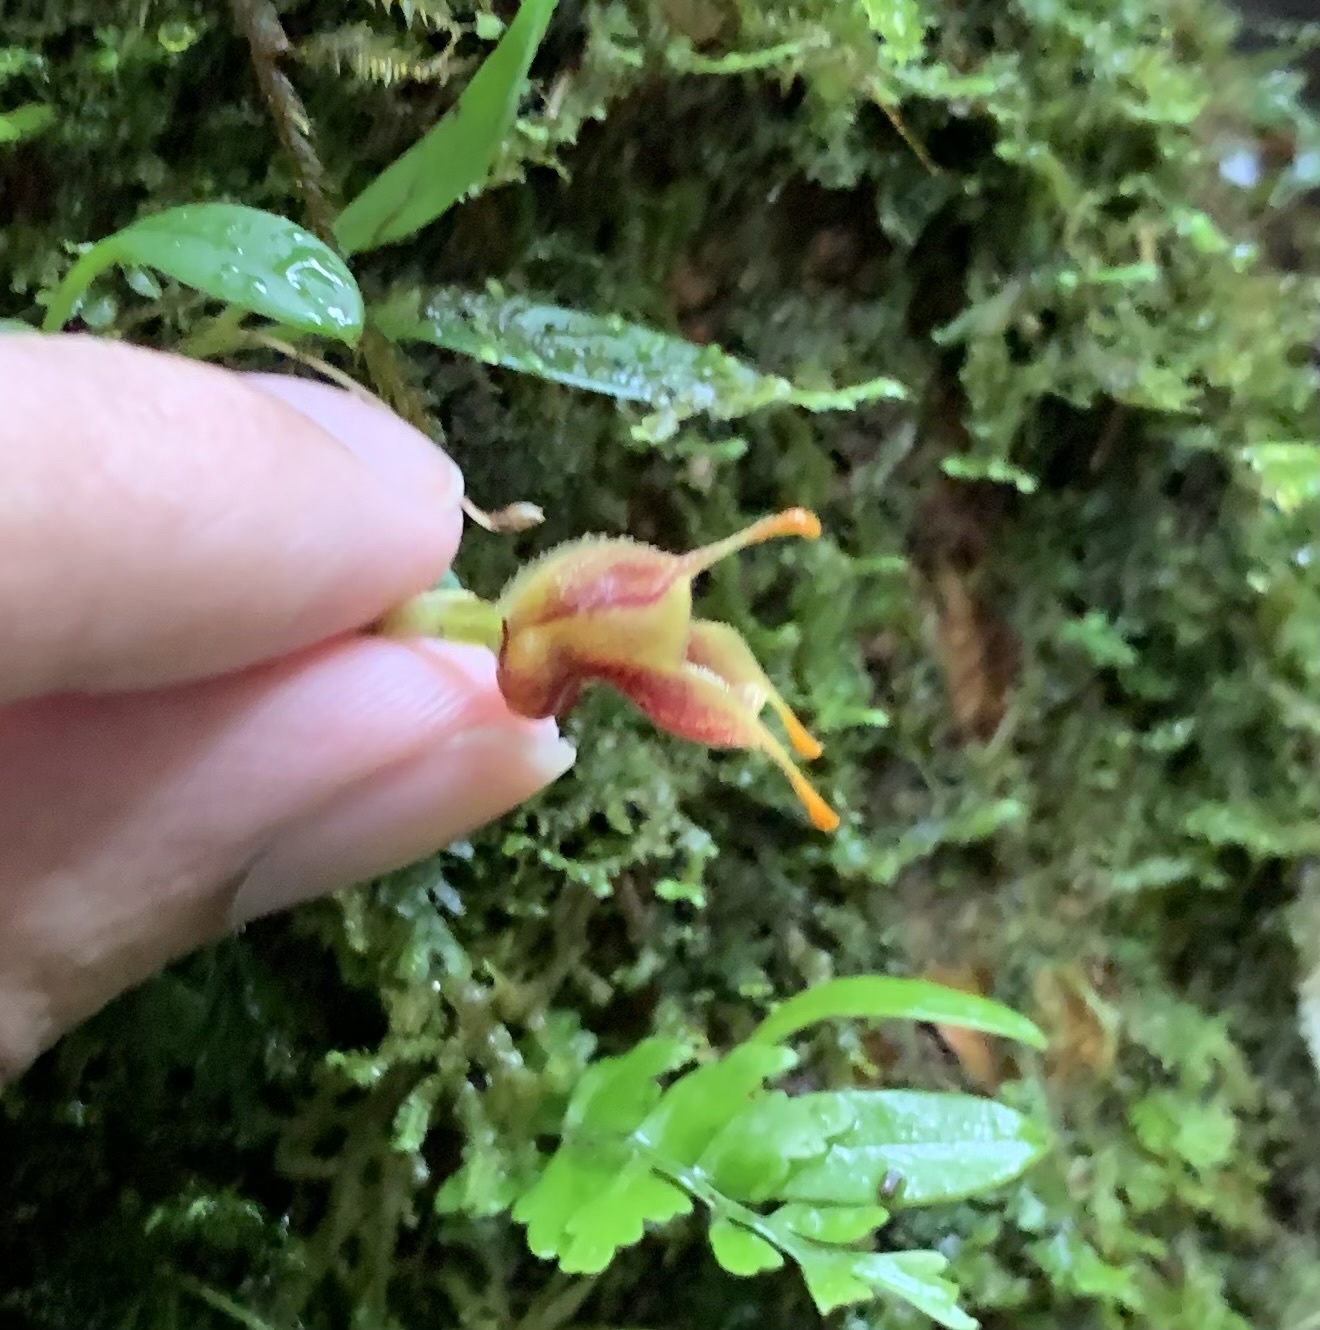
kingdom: Plantae
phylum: Tracheophyta
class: Liliopsida
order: Asparagales
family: Orchidaceae
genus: Masdevallia
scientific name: Masdevallia molossoides
